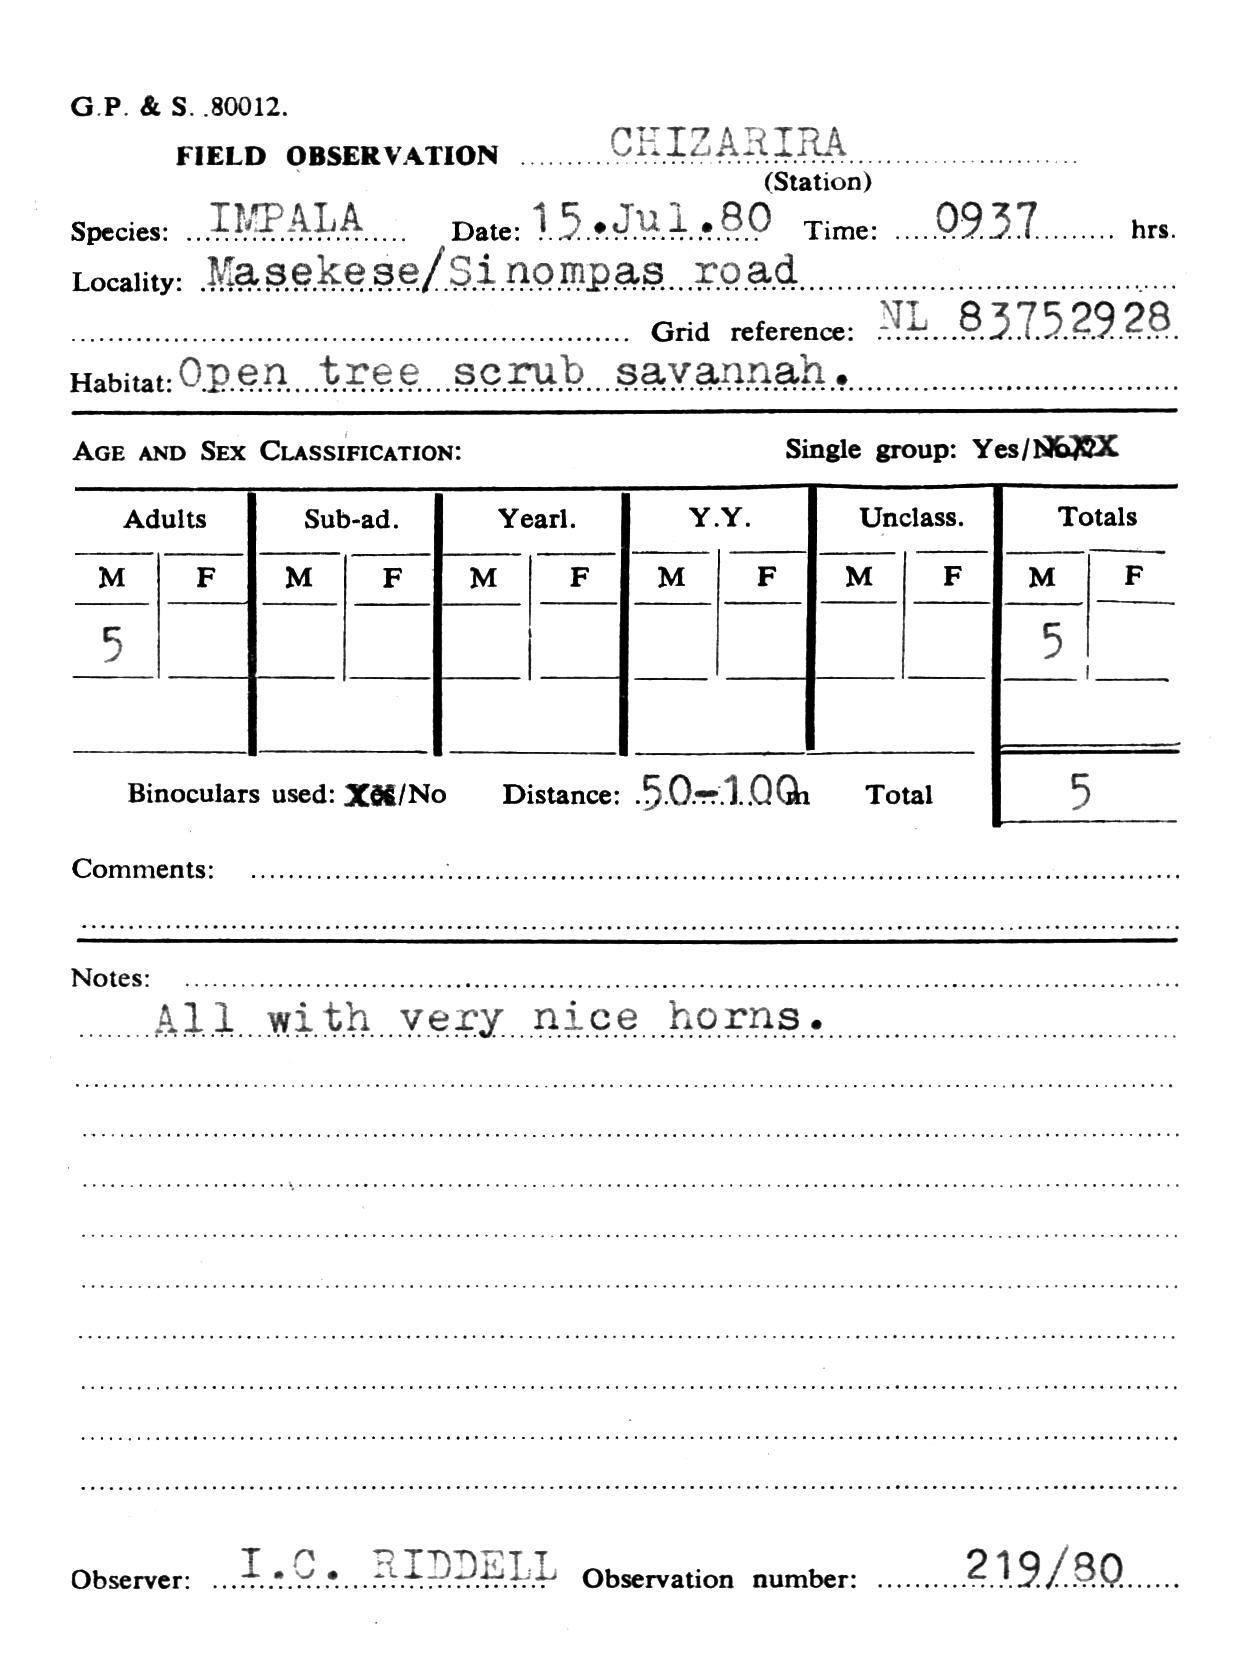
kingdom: Animalia
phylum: Chordata
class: Mammalia
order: Artiodactyla
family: Bovidae
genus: Aepyceros
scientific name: Aepyceros melampus
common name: Impala
